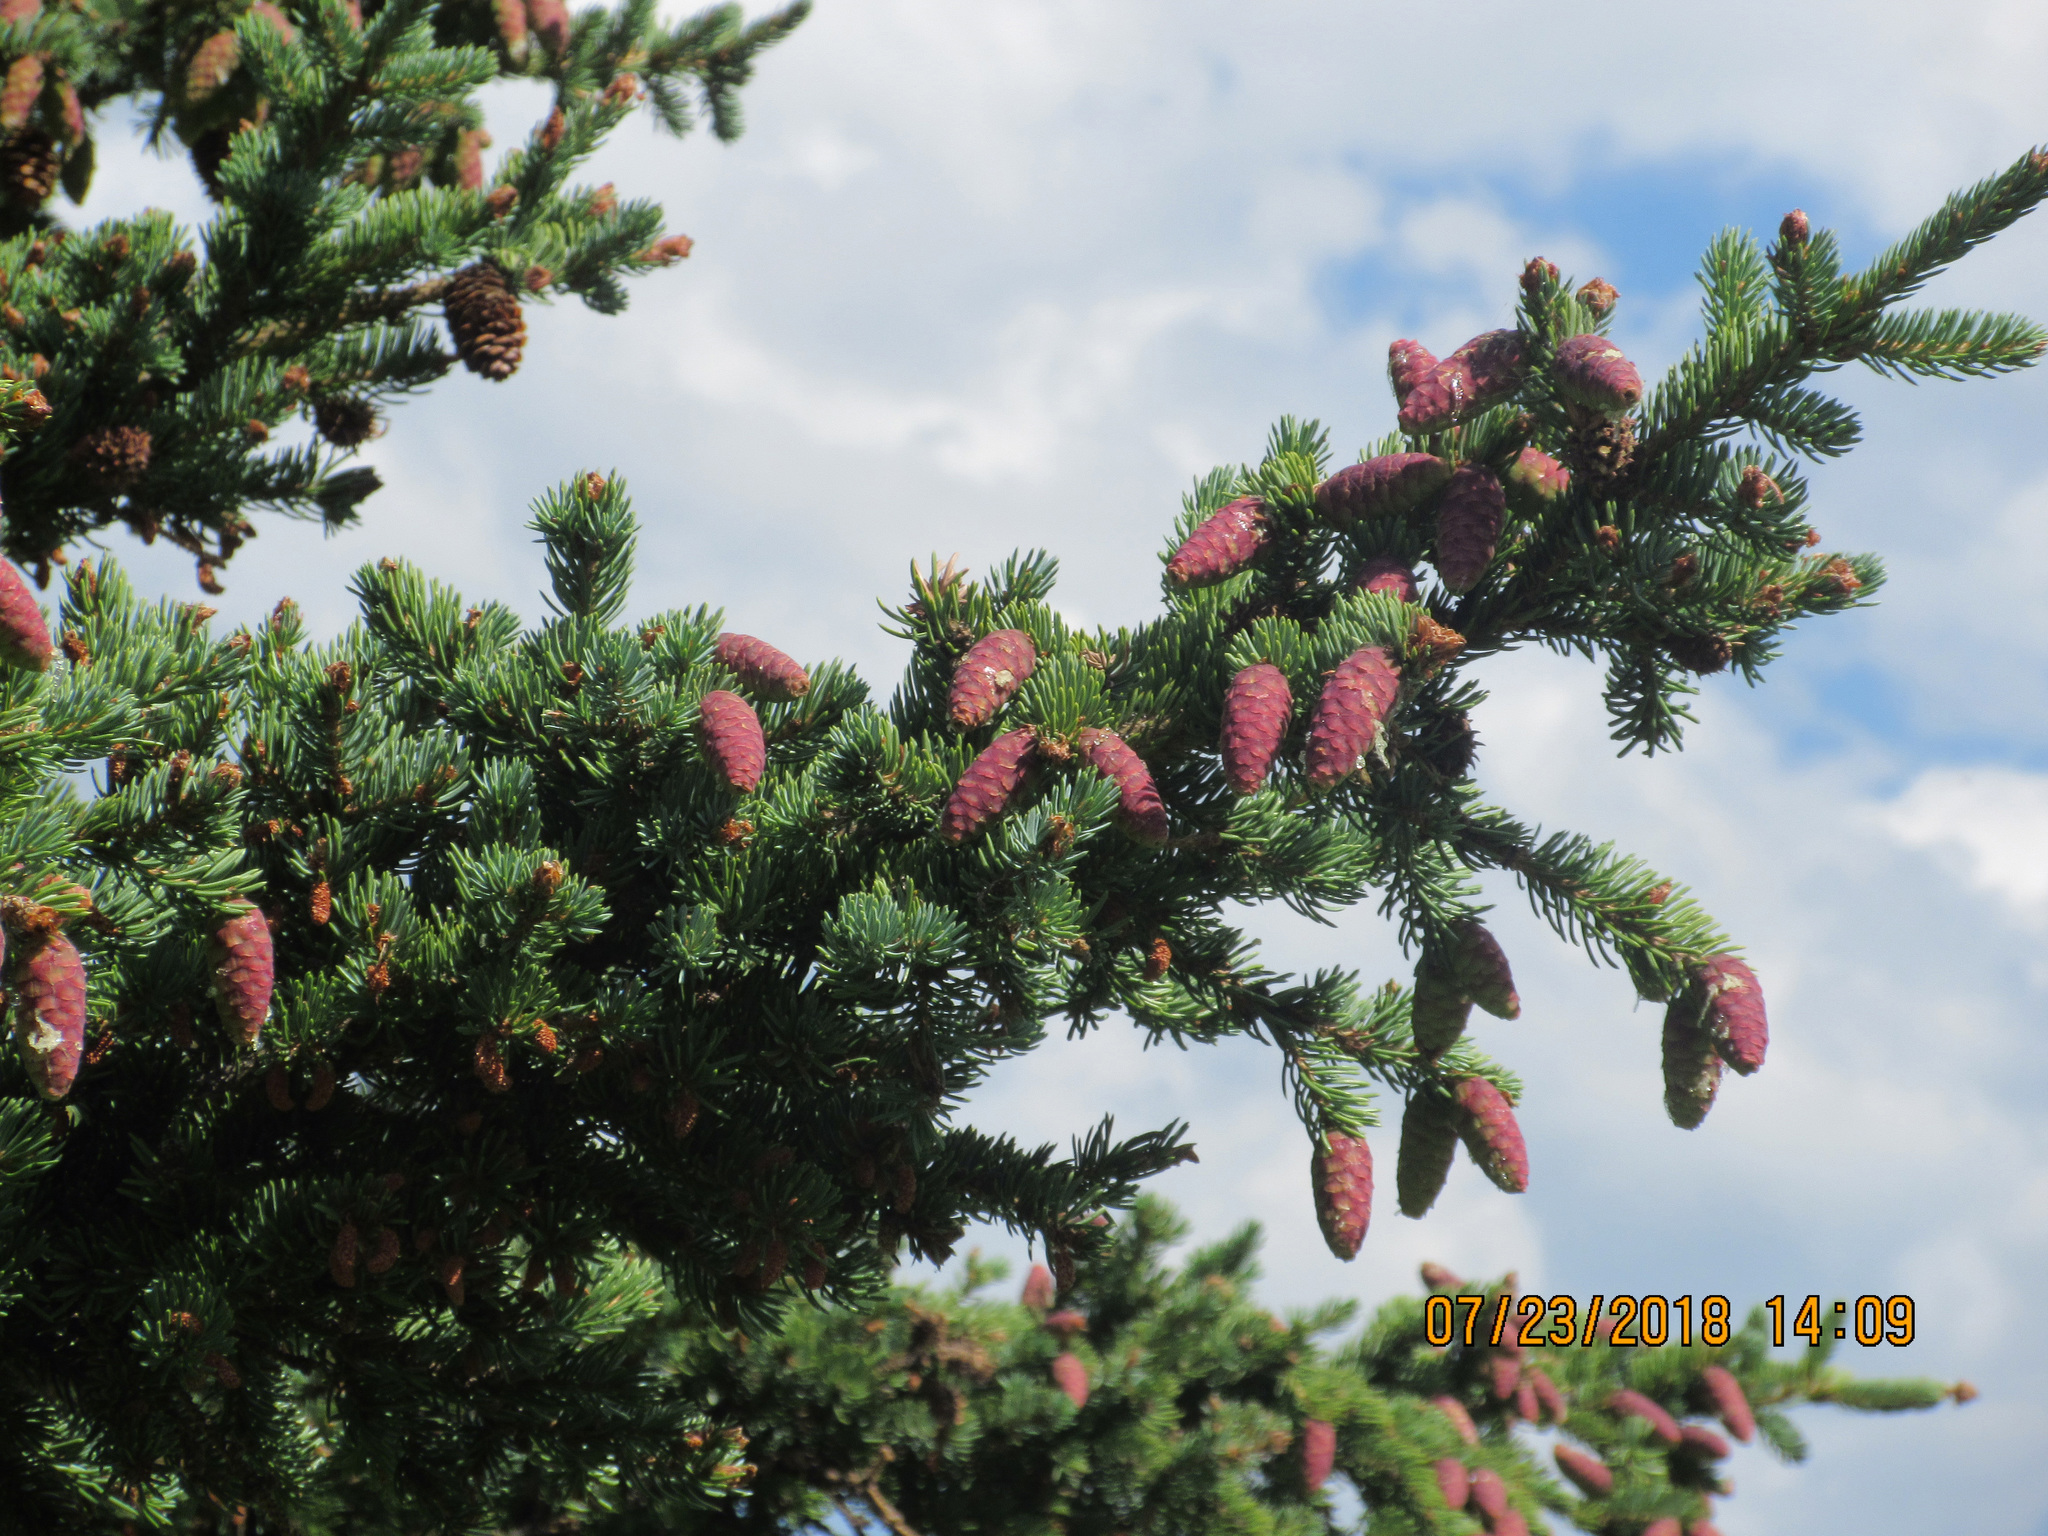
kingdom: Plantae
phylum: Tracheophyta
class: Pinopsida
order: Pinales
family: Pinaceae
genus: Picea
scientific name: Picea engelmannii
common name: Engelmann spruce
